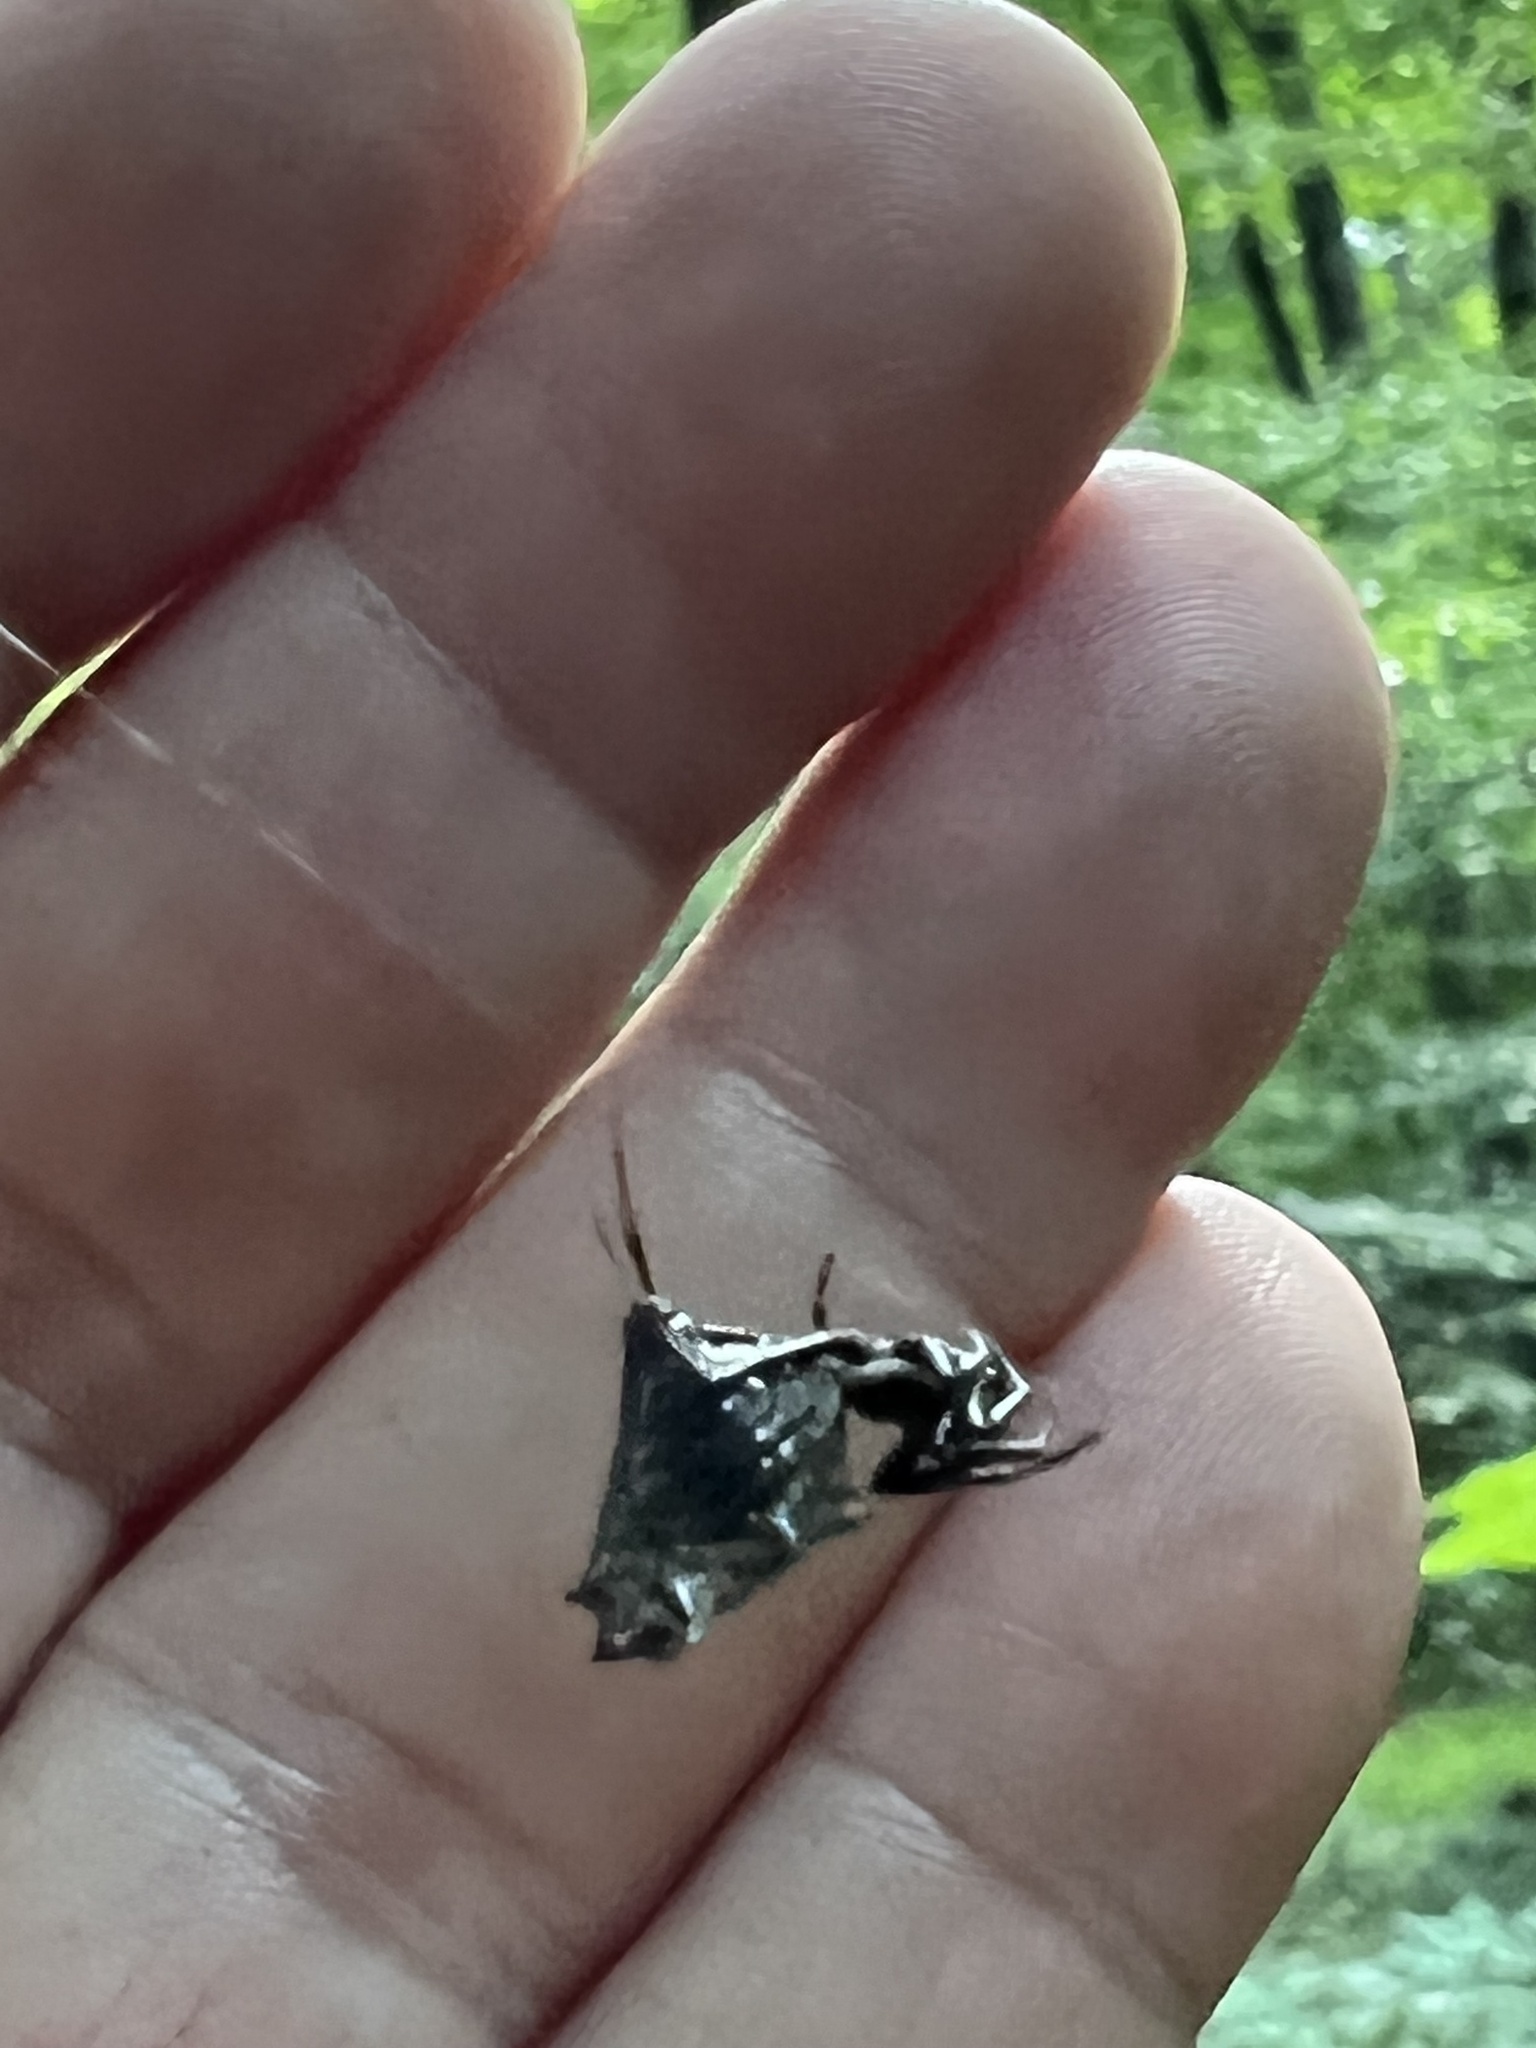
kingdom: Animalia
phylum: Arthropoda
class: Arachnida
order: Araneae
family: Araneidae
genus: Micrathena
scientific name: Micrathena gracilis
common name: Orb weavers
